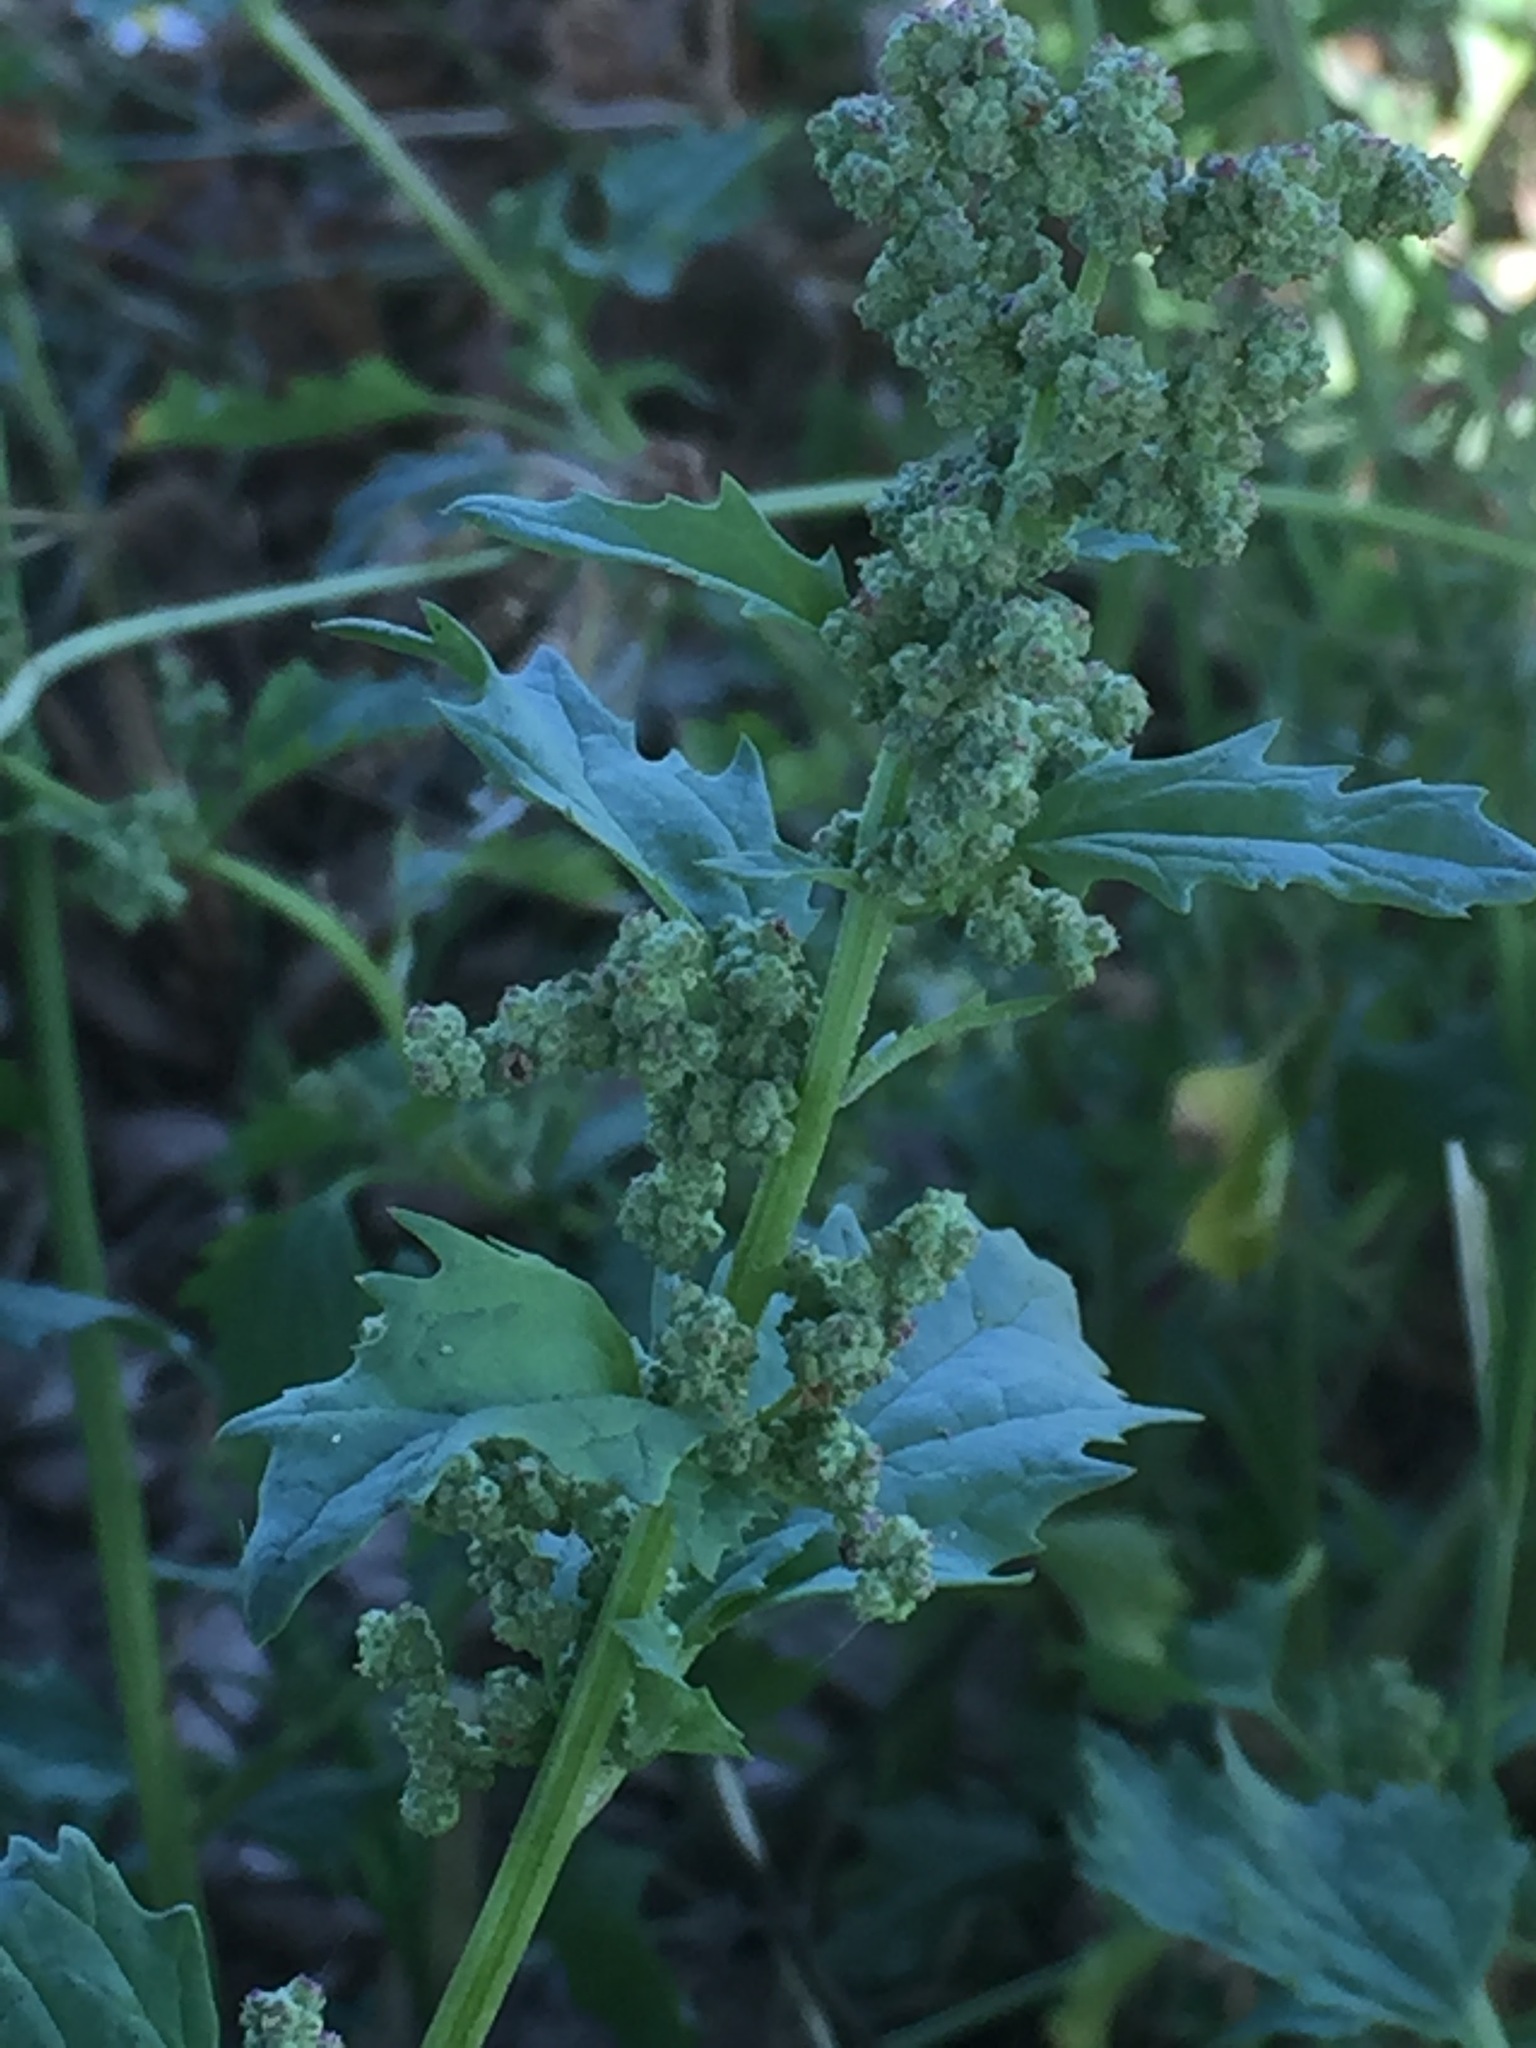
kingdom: Plantae
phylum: Tracheophyta
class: Magnoliopsida
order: Caryophyllales
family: Amaranthaceae
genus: Chenopodiastrum
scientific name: Chenopodiastrum murale
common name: Sowbane
